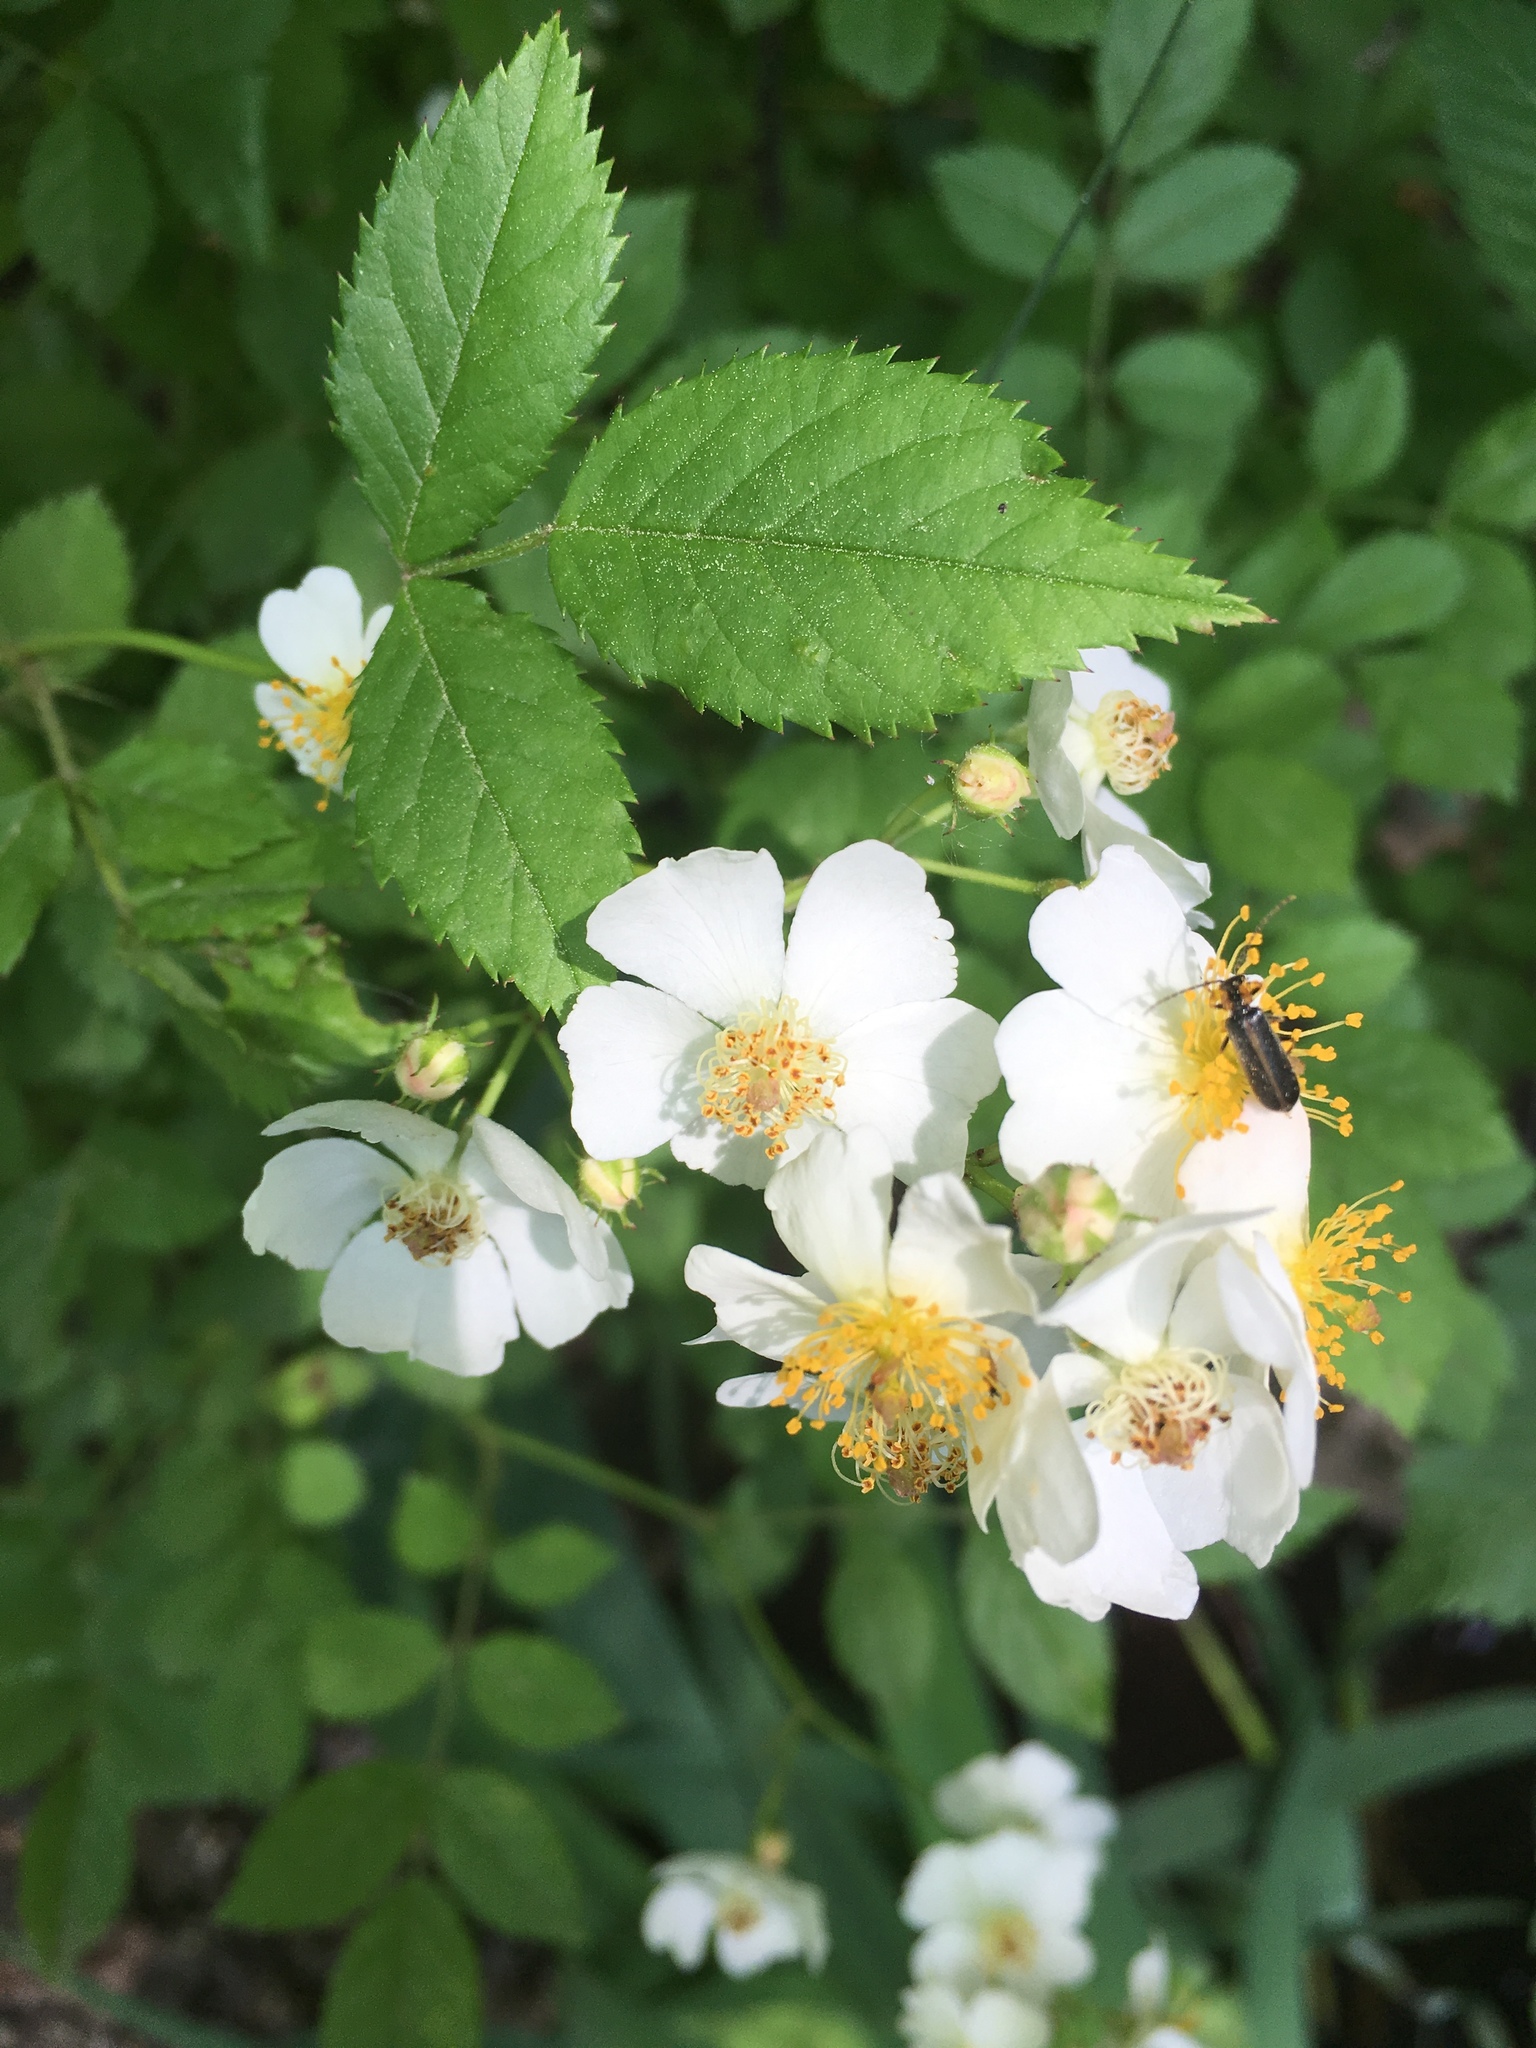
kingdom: Plantae
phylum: Tracheophyta
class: Magnoliopsida
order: Rosales
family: Rosaceae
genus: Rosa
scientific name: Rosa multiflora
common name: Multiflora rose
